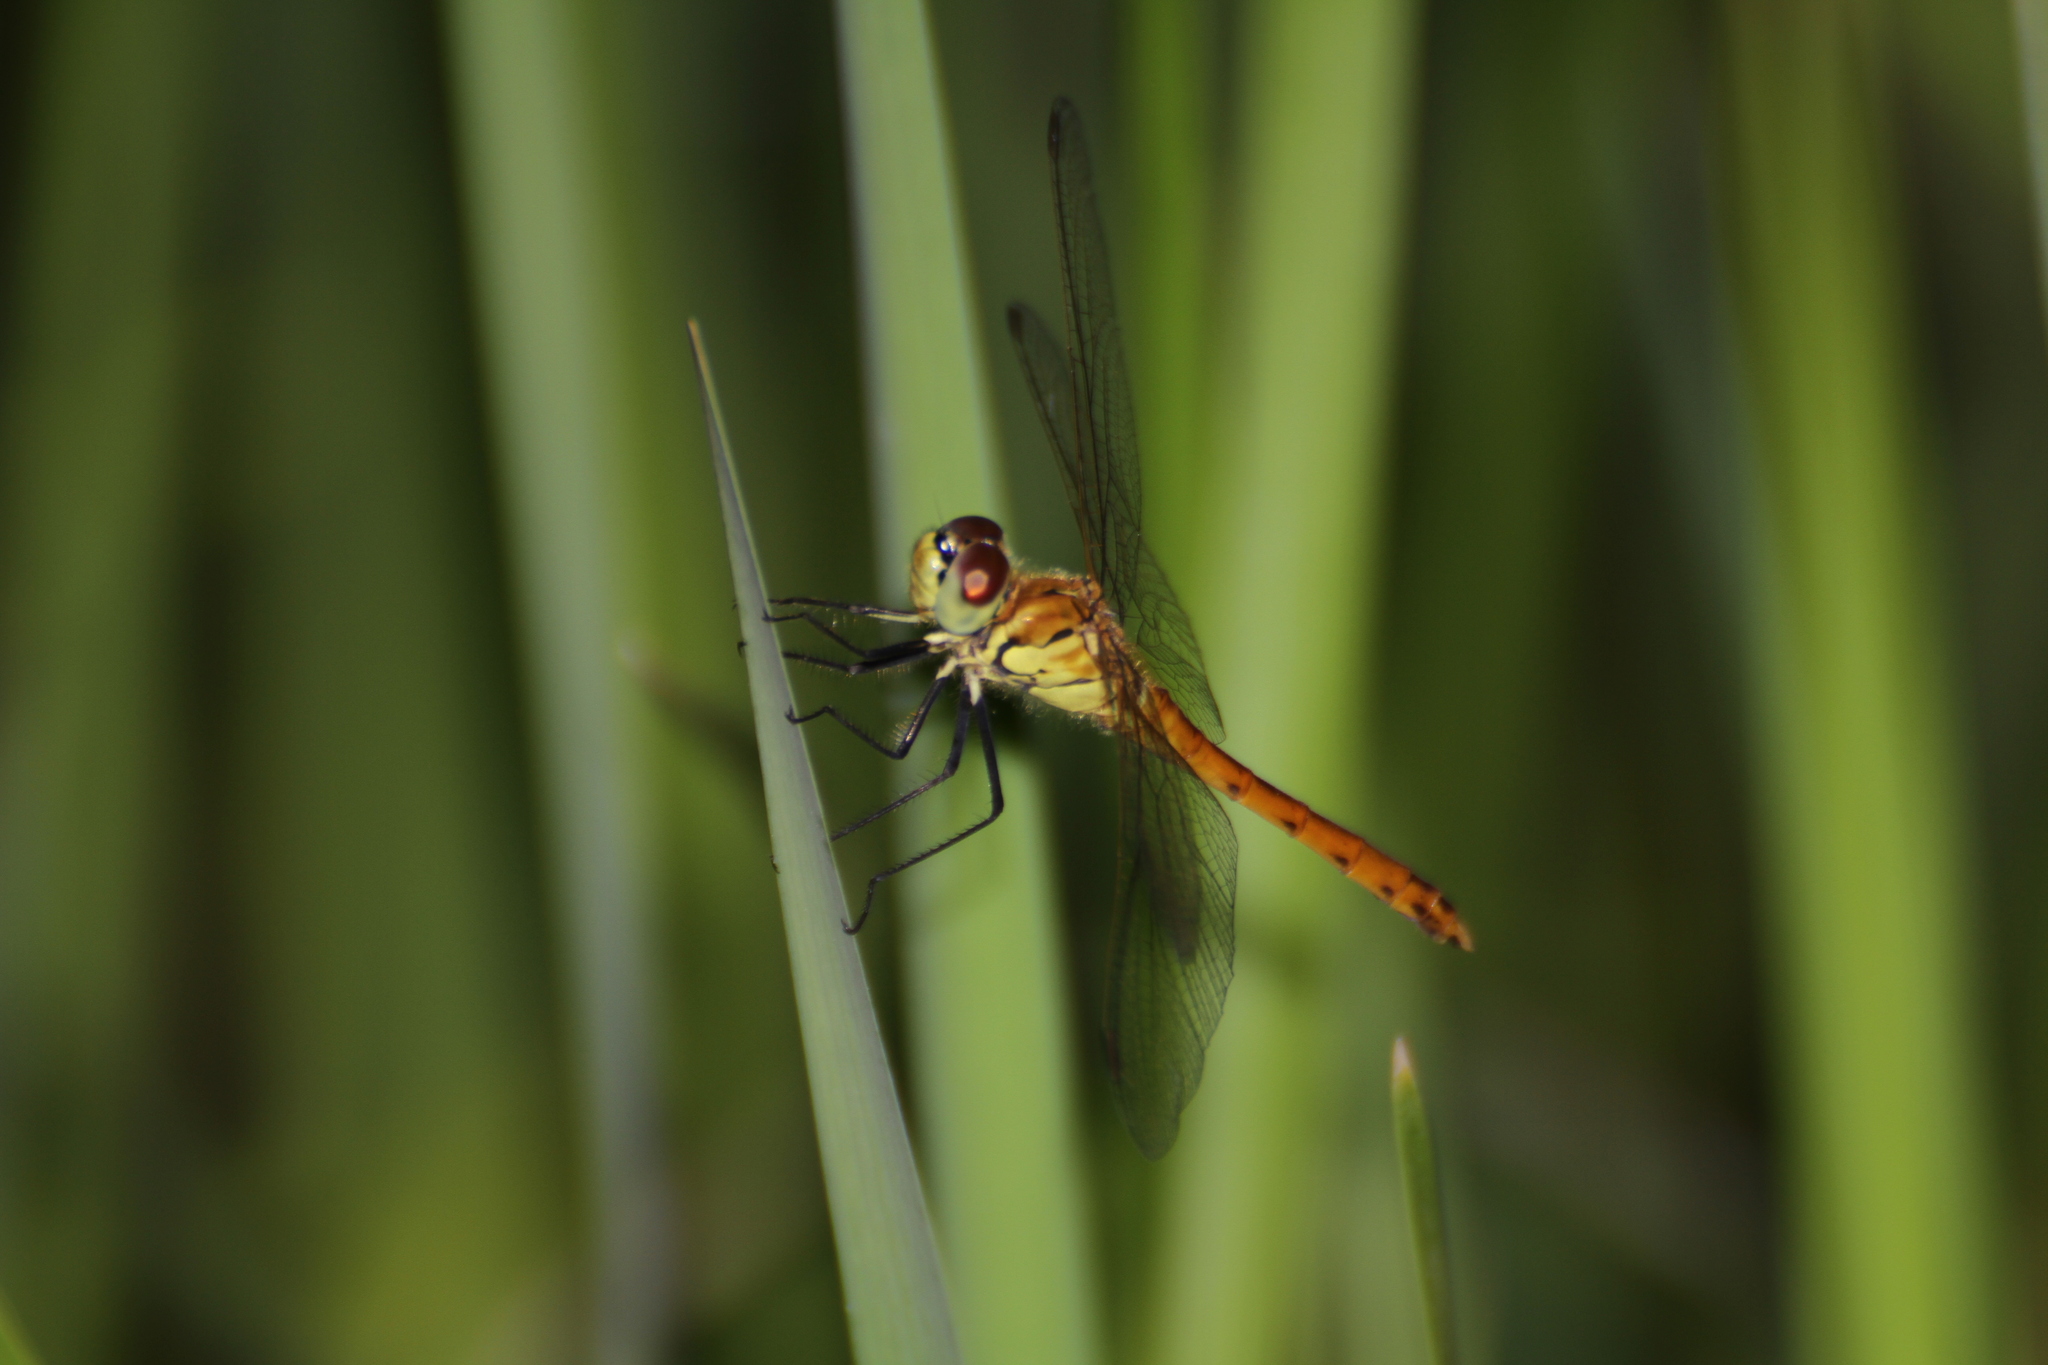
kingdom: Animalia
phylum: Arthropoda
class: Insecta
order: Odonata
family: Libellulidae
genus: Sympetrum
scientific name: Sympetrum depressiusculum
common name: Spotted darter
